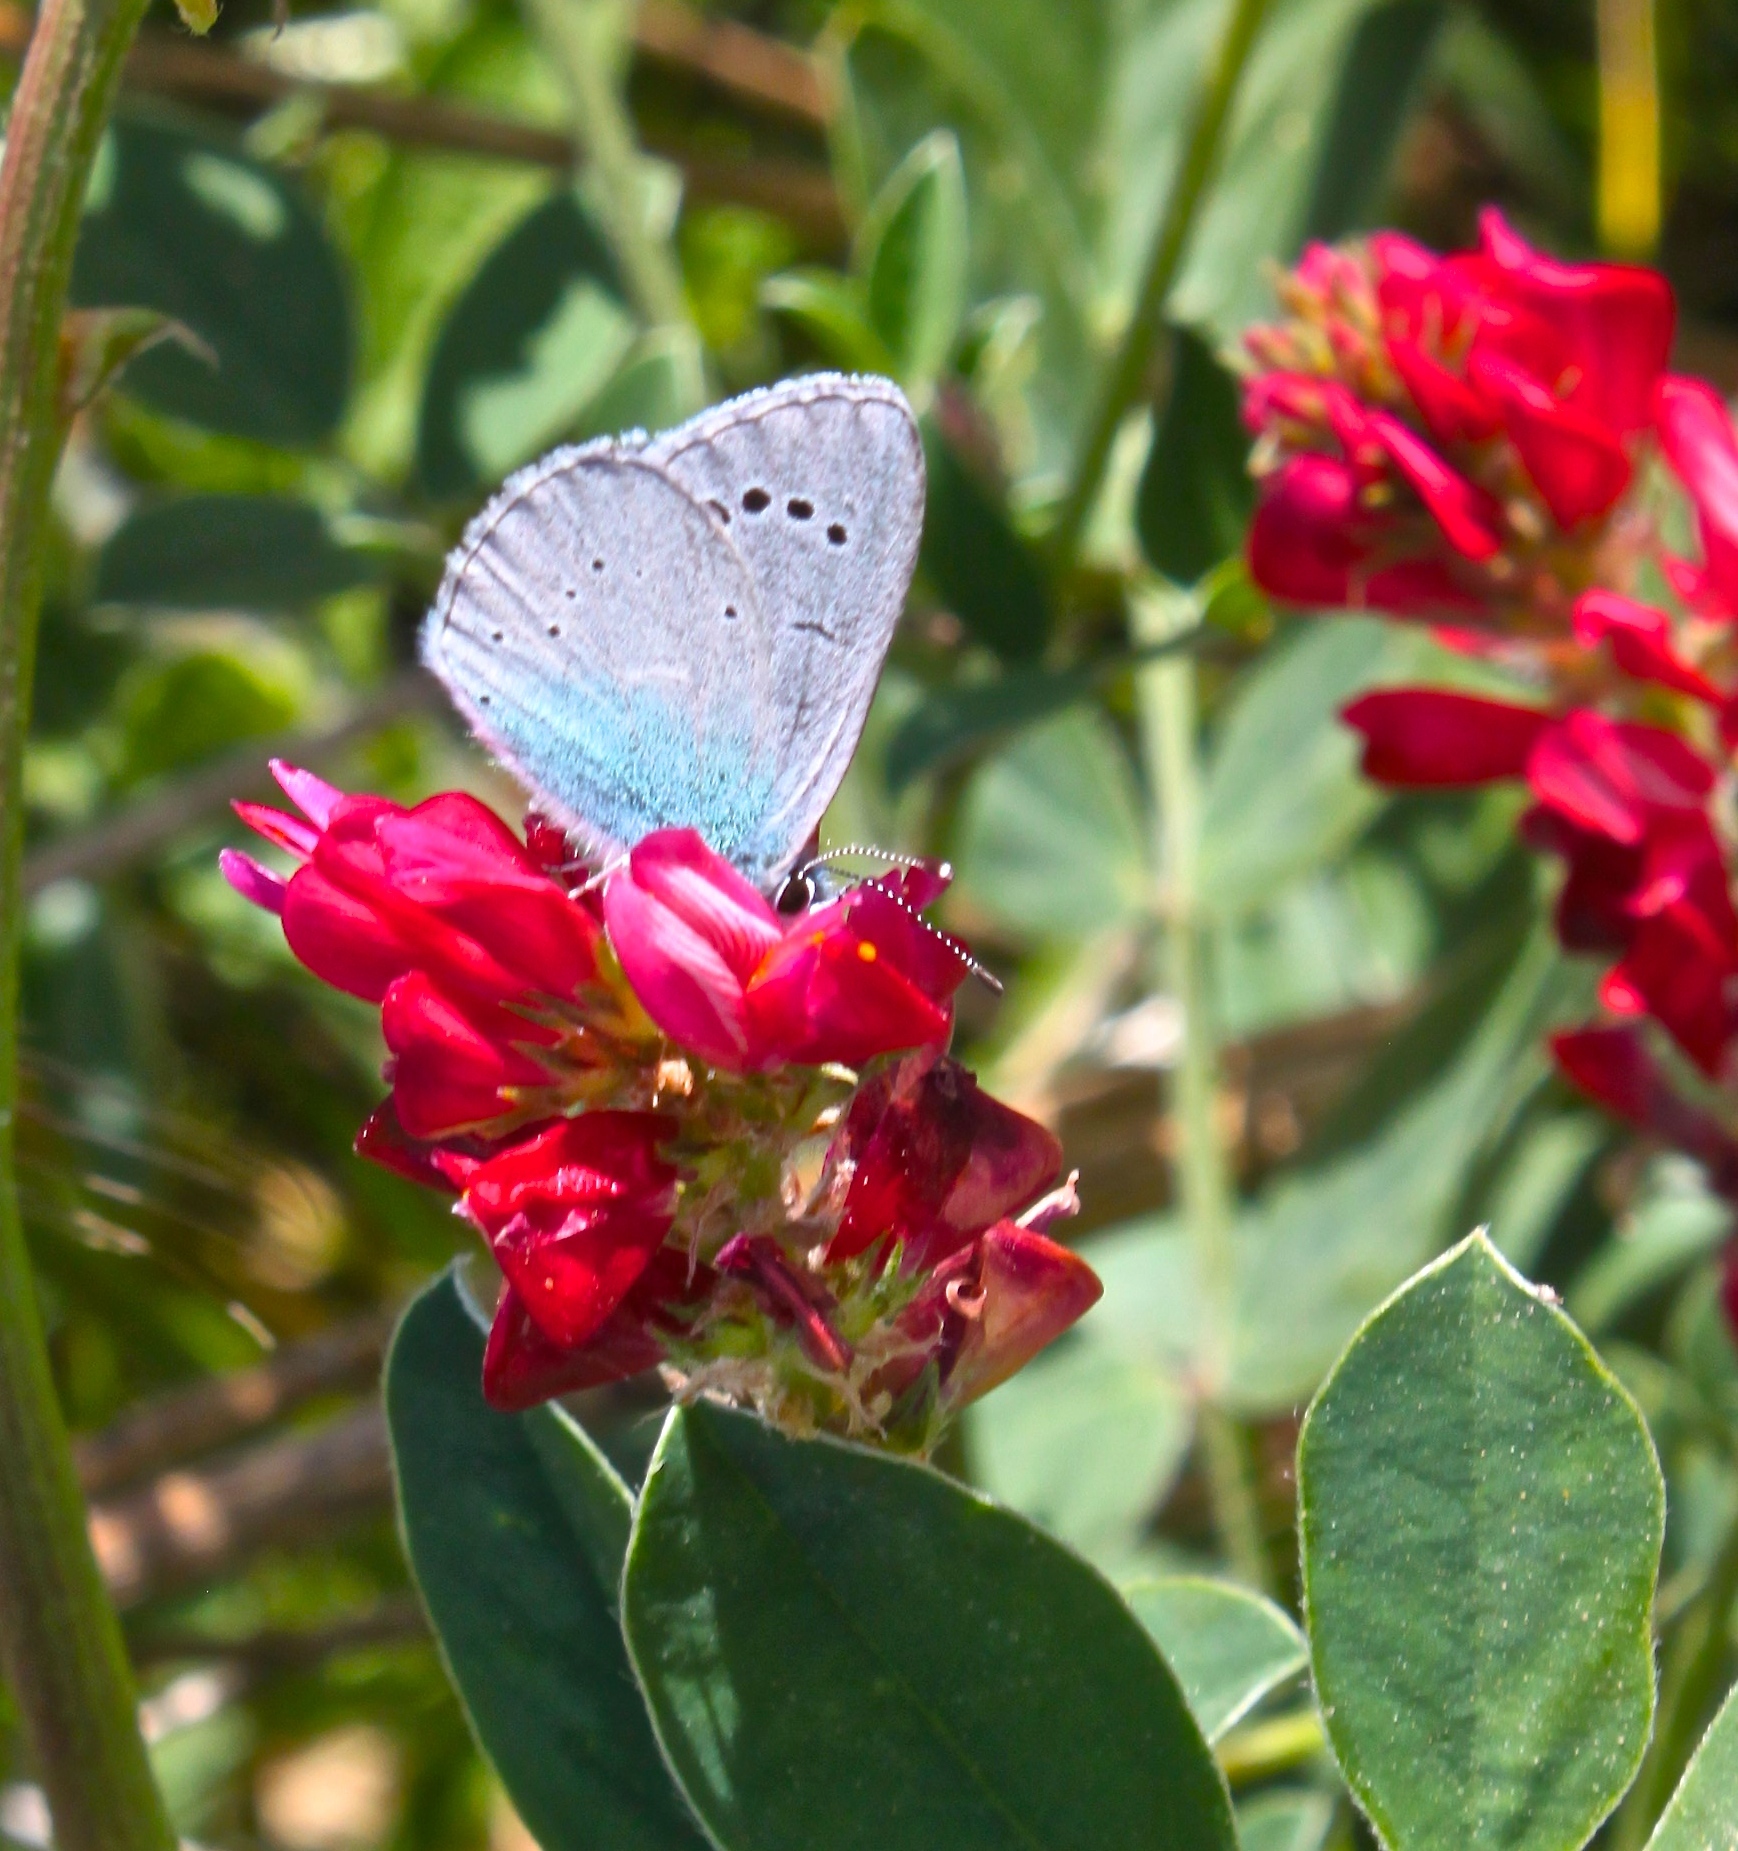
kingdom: Animalia
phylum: Arthropoda
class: Insecta
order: Lepidoptera
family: Lycaenidae
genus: Glaucopsyche
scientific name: Glaucopsyche alexis
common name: Green-underside blue
